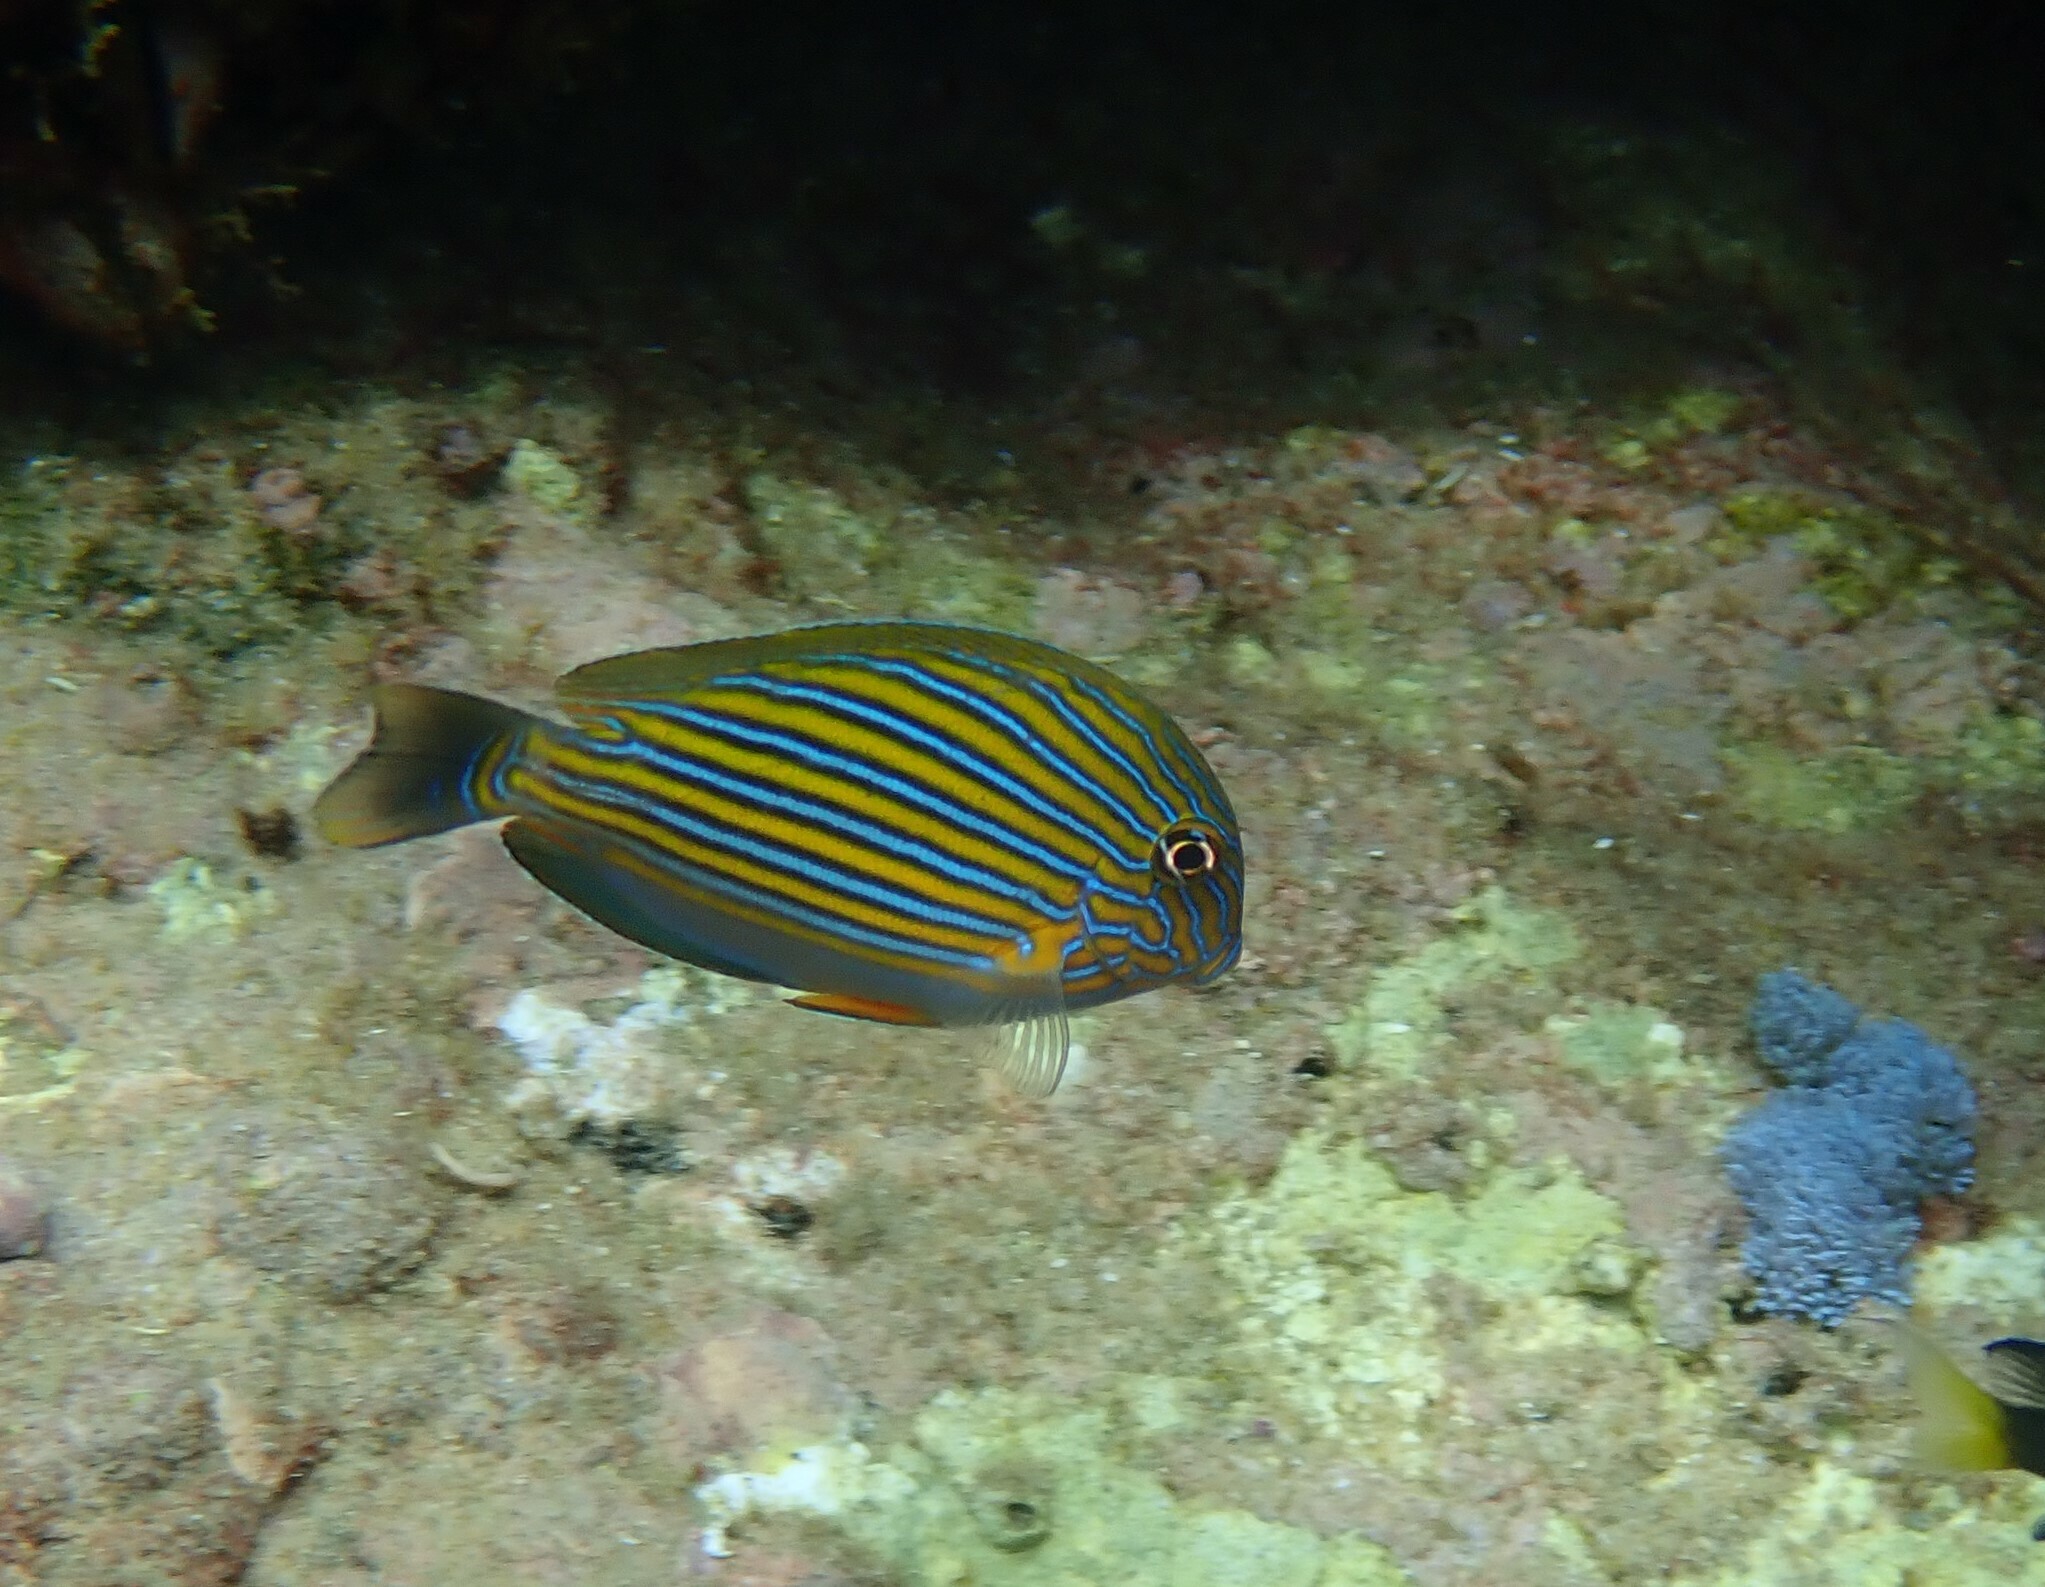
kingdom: Animalia
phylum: Chordata
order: Perciformes
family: Acanthuridae
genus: Acanthurus
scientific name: Acanthurus lineatus
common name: Striped surgeonfish
